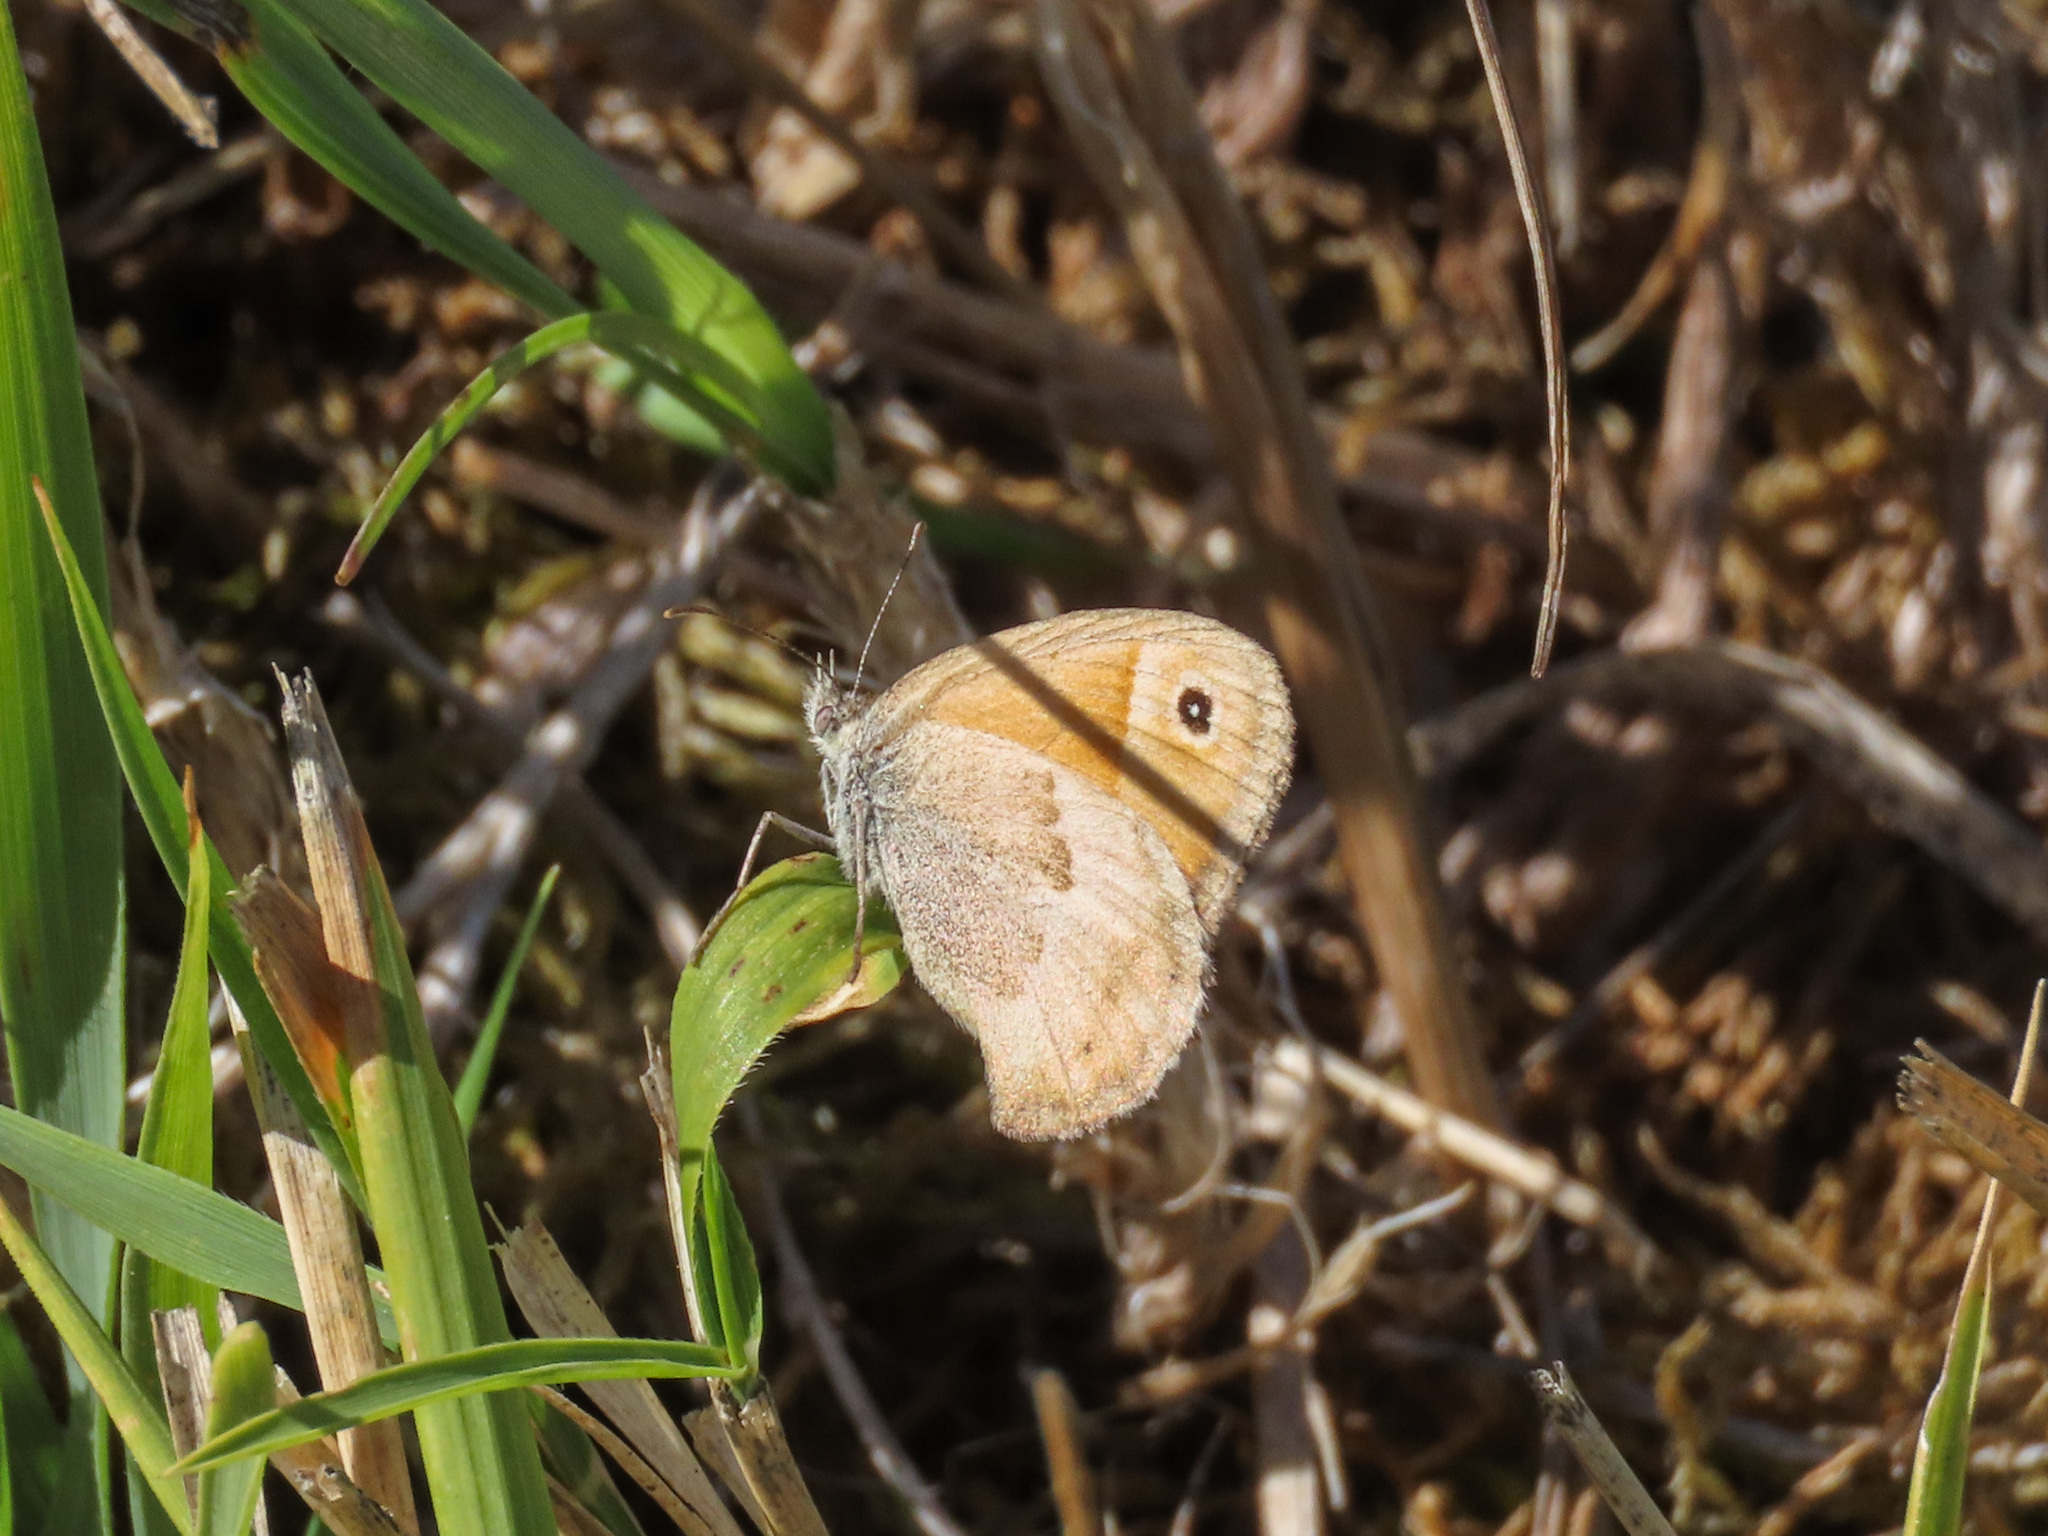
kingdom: Animalia
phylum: Arthropoda
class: Insecta
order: Lepidoptera
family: Nymphalidae
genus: Coenonympha
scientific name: Coenonympha pamphilus
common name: Small heath
